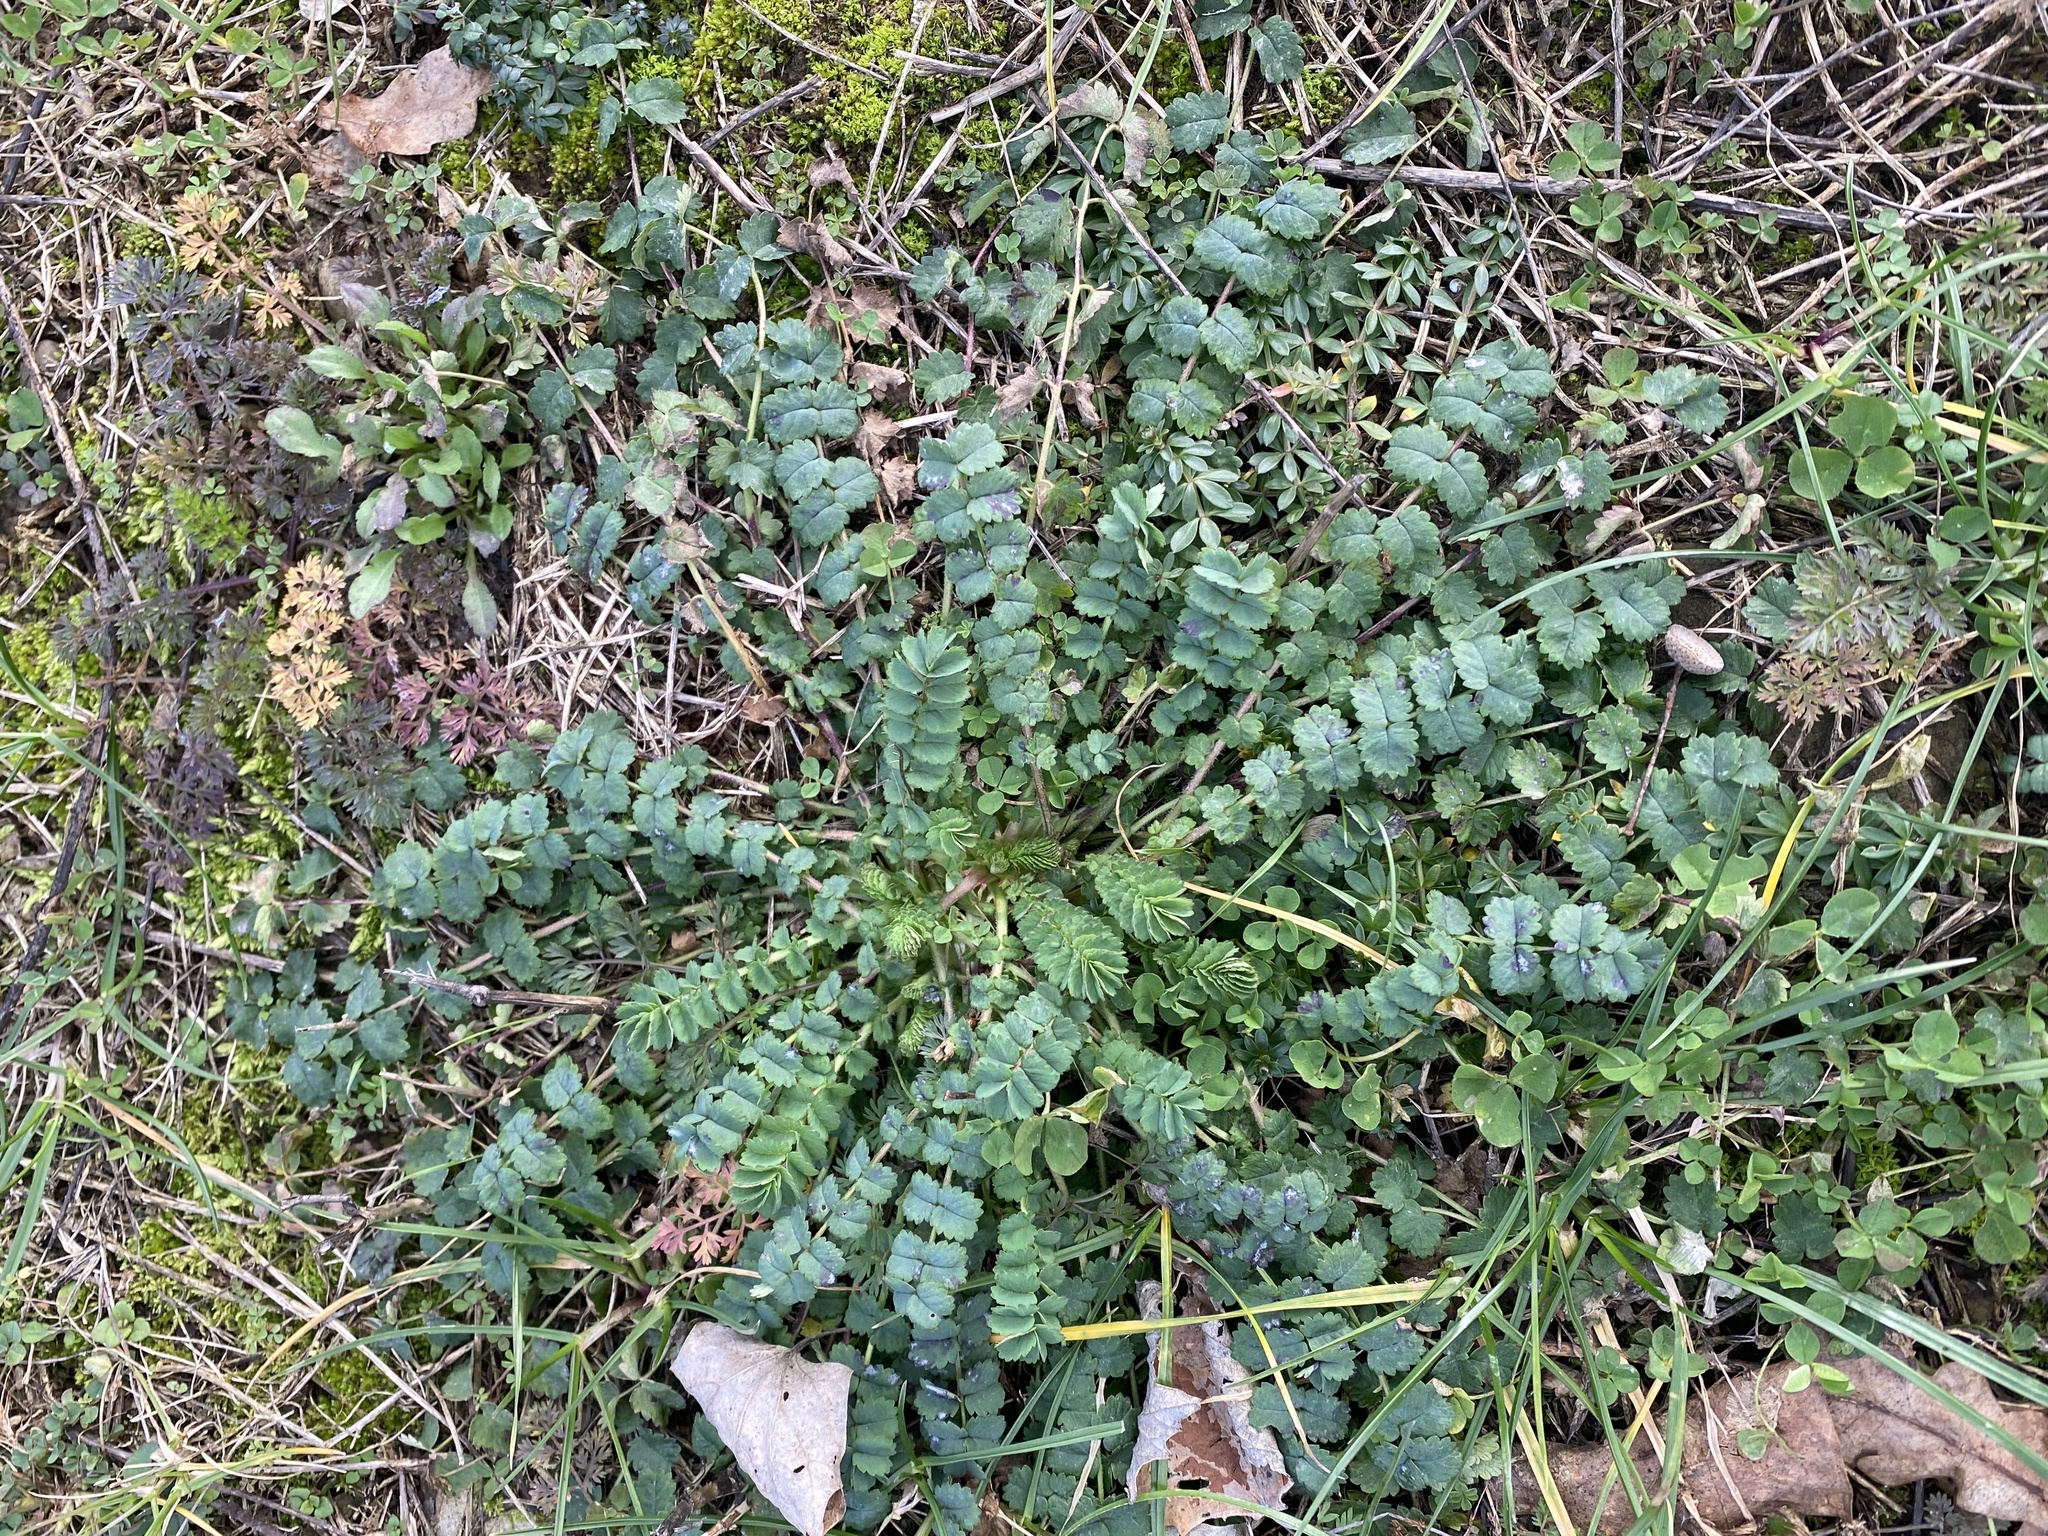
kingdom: Plantae
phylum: Tracheophyta
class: Magnoliopsida
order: Rosales
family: Rosaceae
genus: Poterium
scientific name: Poterium sanguisorba
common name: Salad burnet
